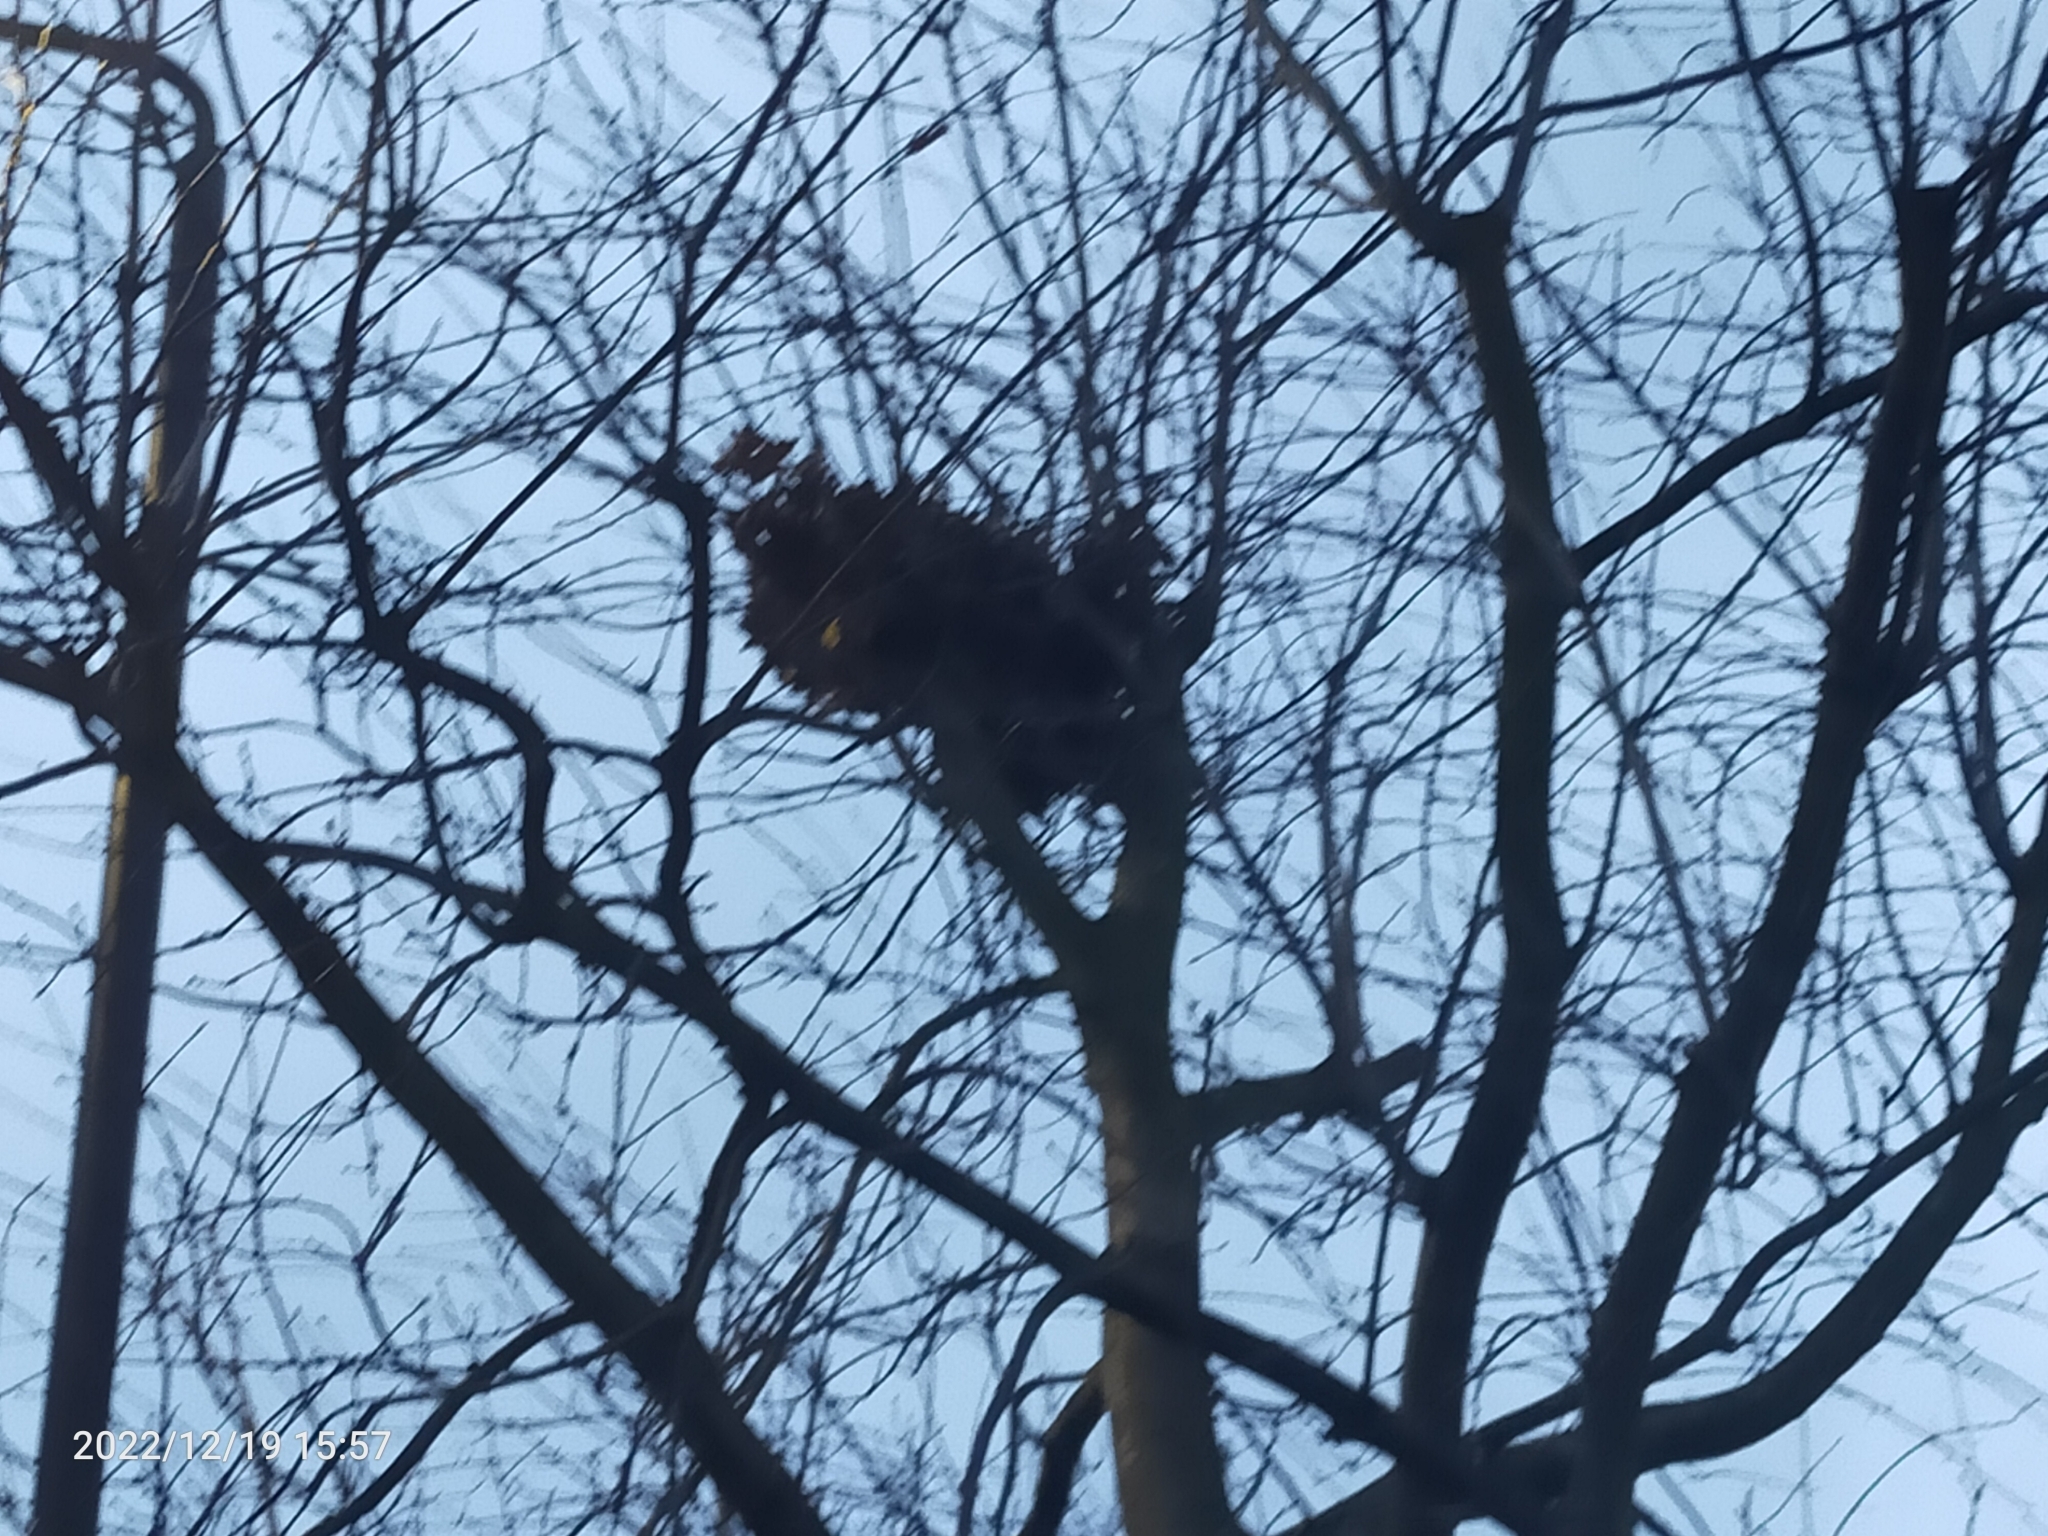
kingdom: Animalia
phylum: Chordata
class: Mammalia
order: Rodentia
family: Sciuridae
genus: Sciurus
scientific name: Sciurus carolinensis
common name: Eastern gray squirrel
